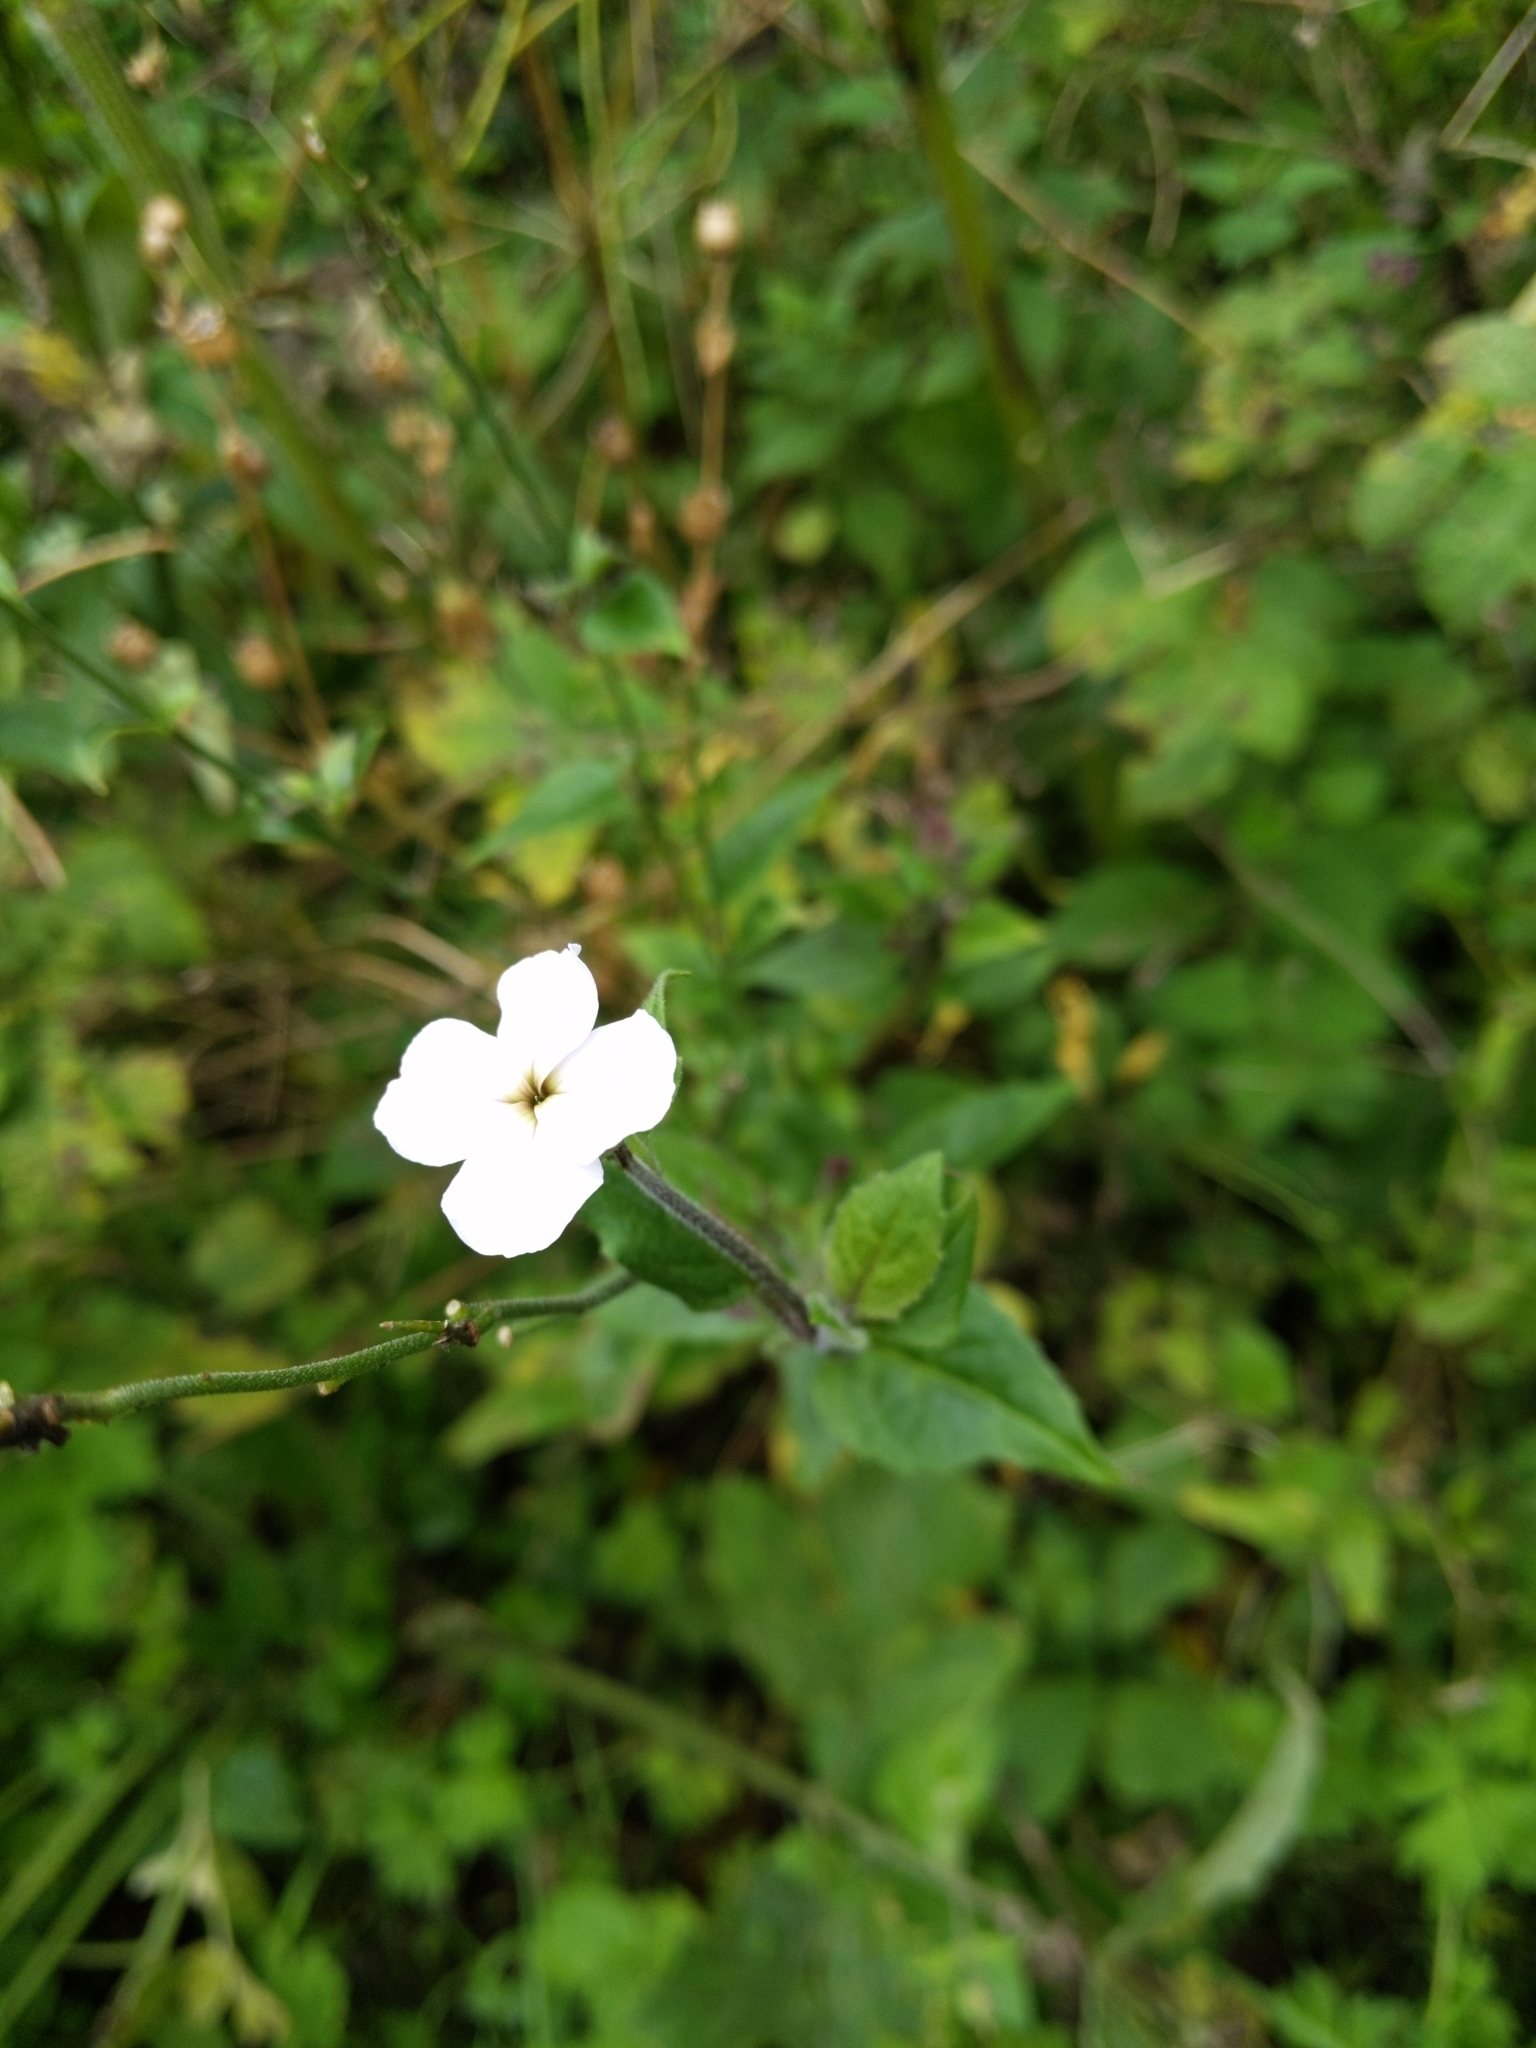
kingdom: Plantae
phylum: Tracheophyta
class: Magnoliopsida
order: Brassicales
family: Brassicaceae
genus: Hesperis
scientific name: Hesperis matronalis
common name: Dame's-violet
